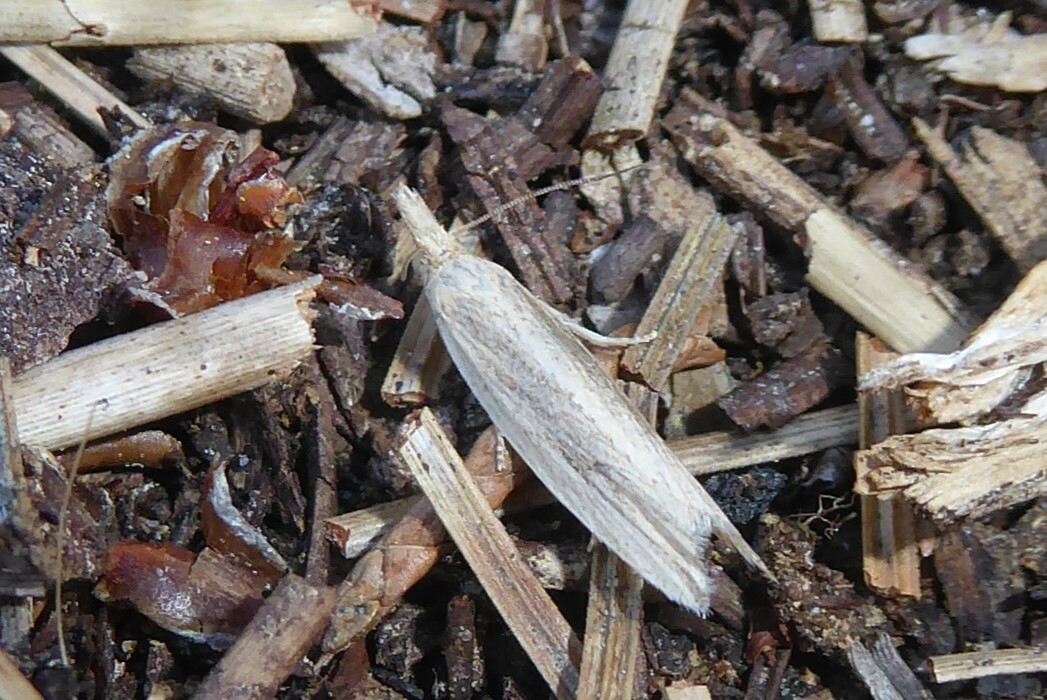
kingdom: Animalia
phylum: Arthropoda
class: Insecta
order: Lepidoptera
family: Tortricidae
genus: Bactra
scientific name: Bactra noteraula
